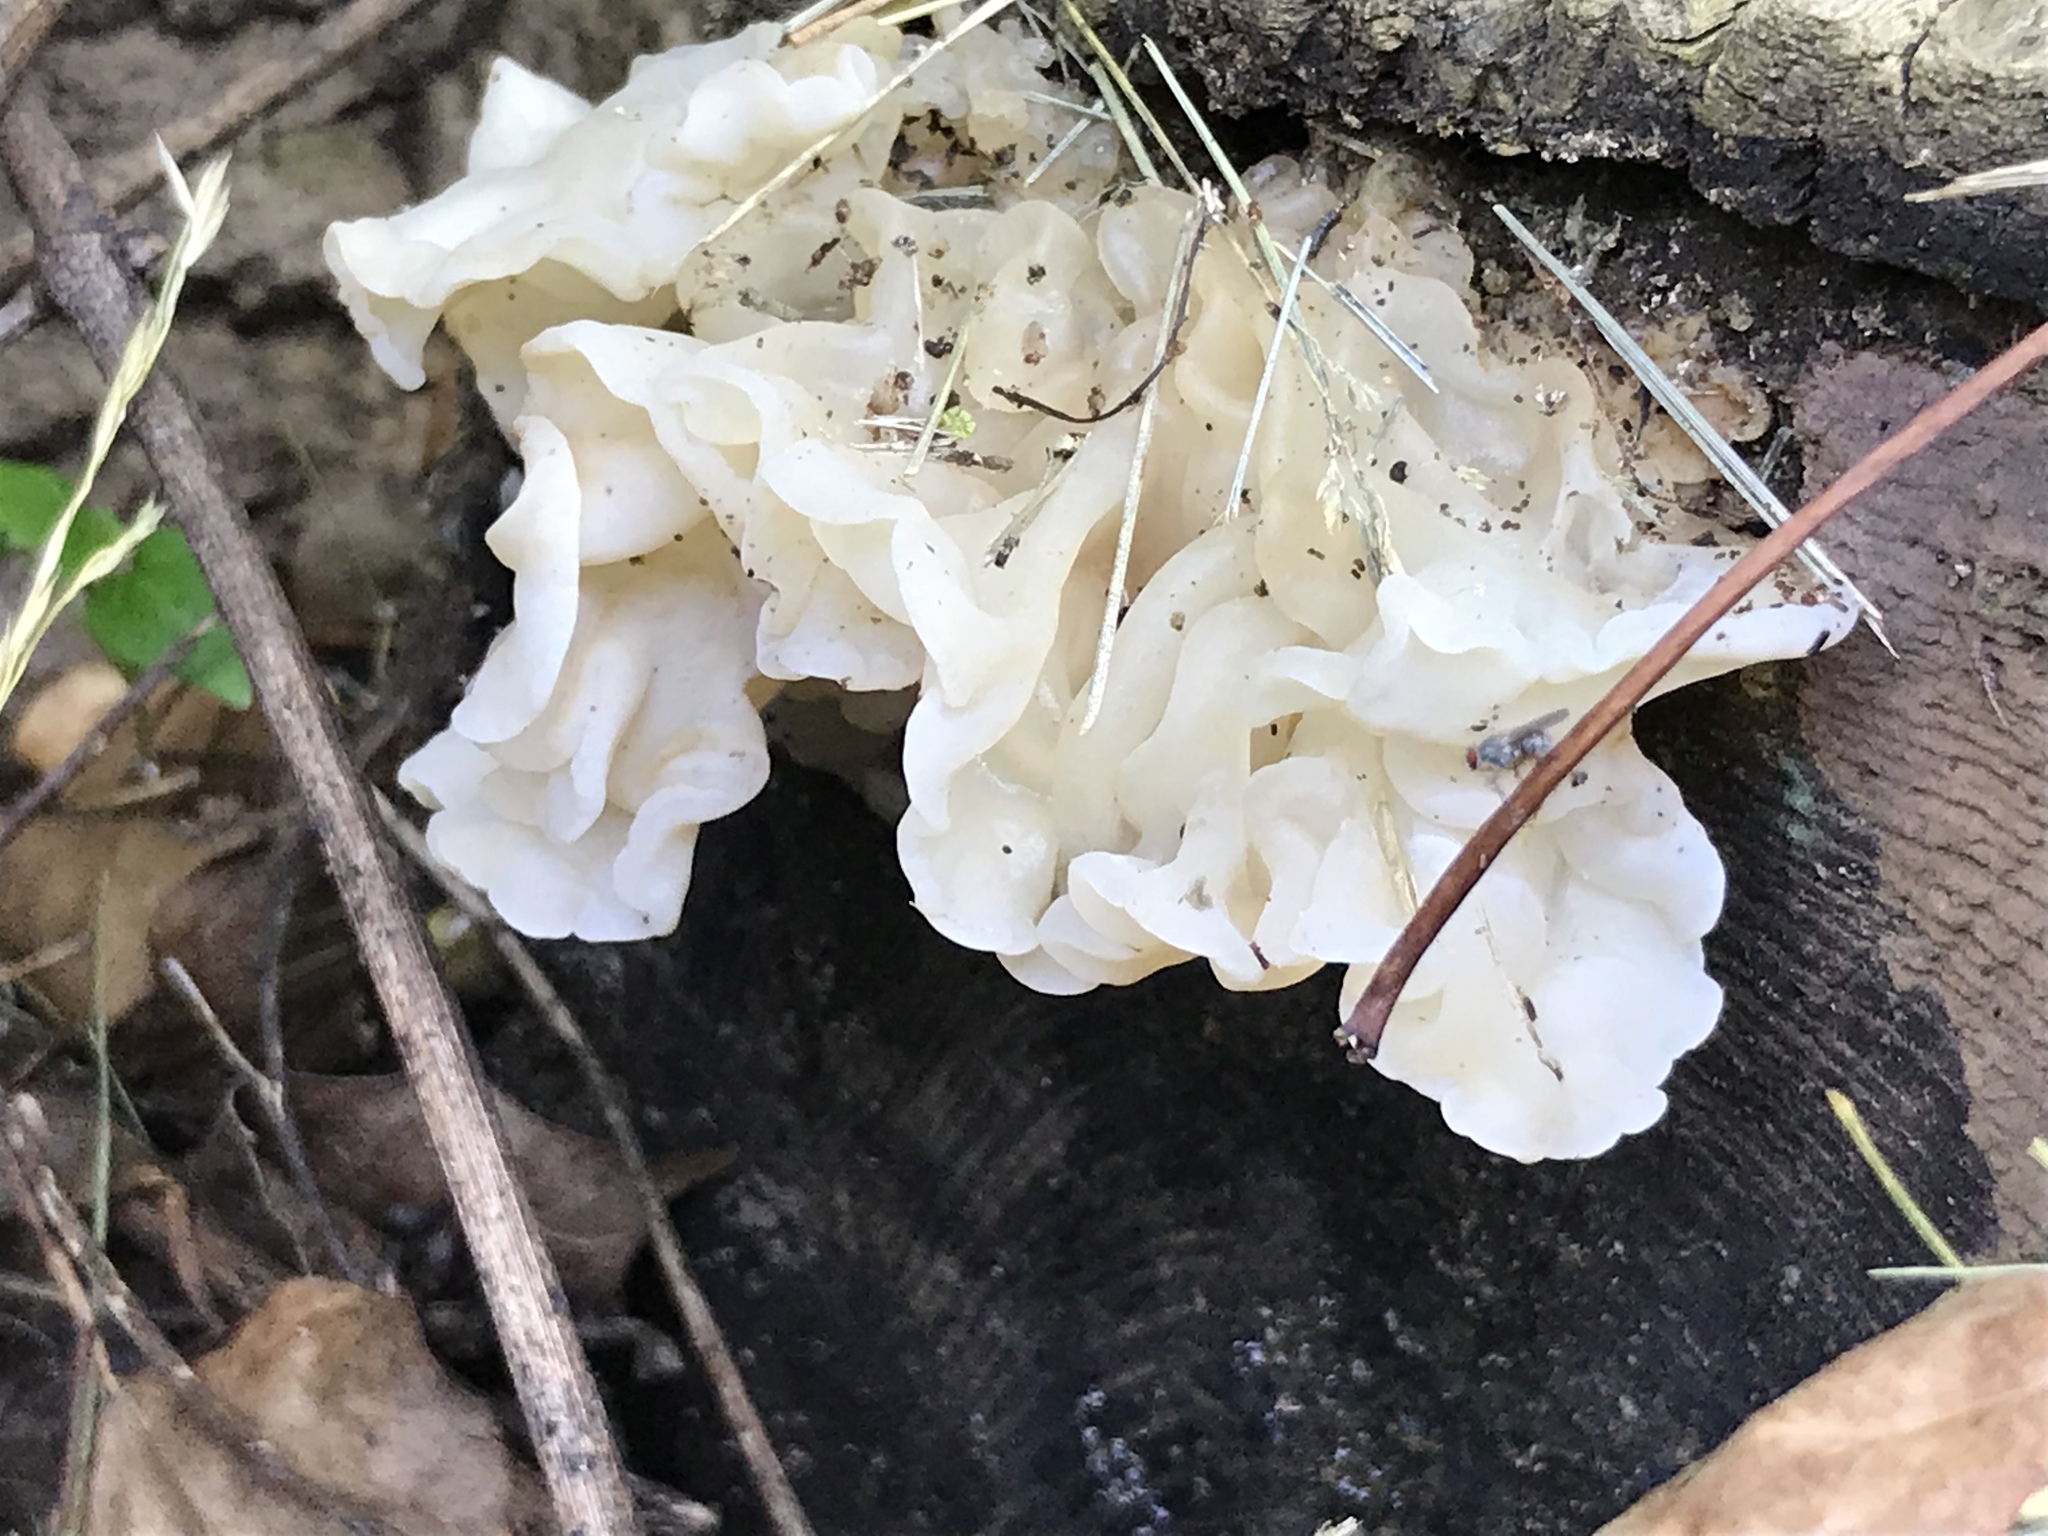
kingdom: Fungi
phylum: Basidiomycota
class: Agaricomycetes
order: Auriculariales
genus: Ductifera
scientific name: Ductifera pululahuana
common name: White jelly fungus
